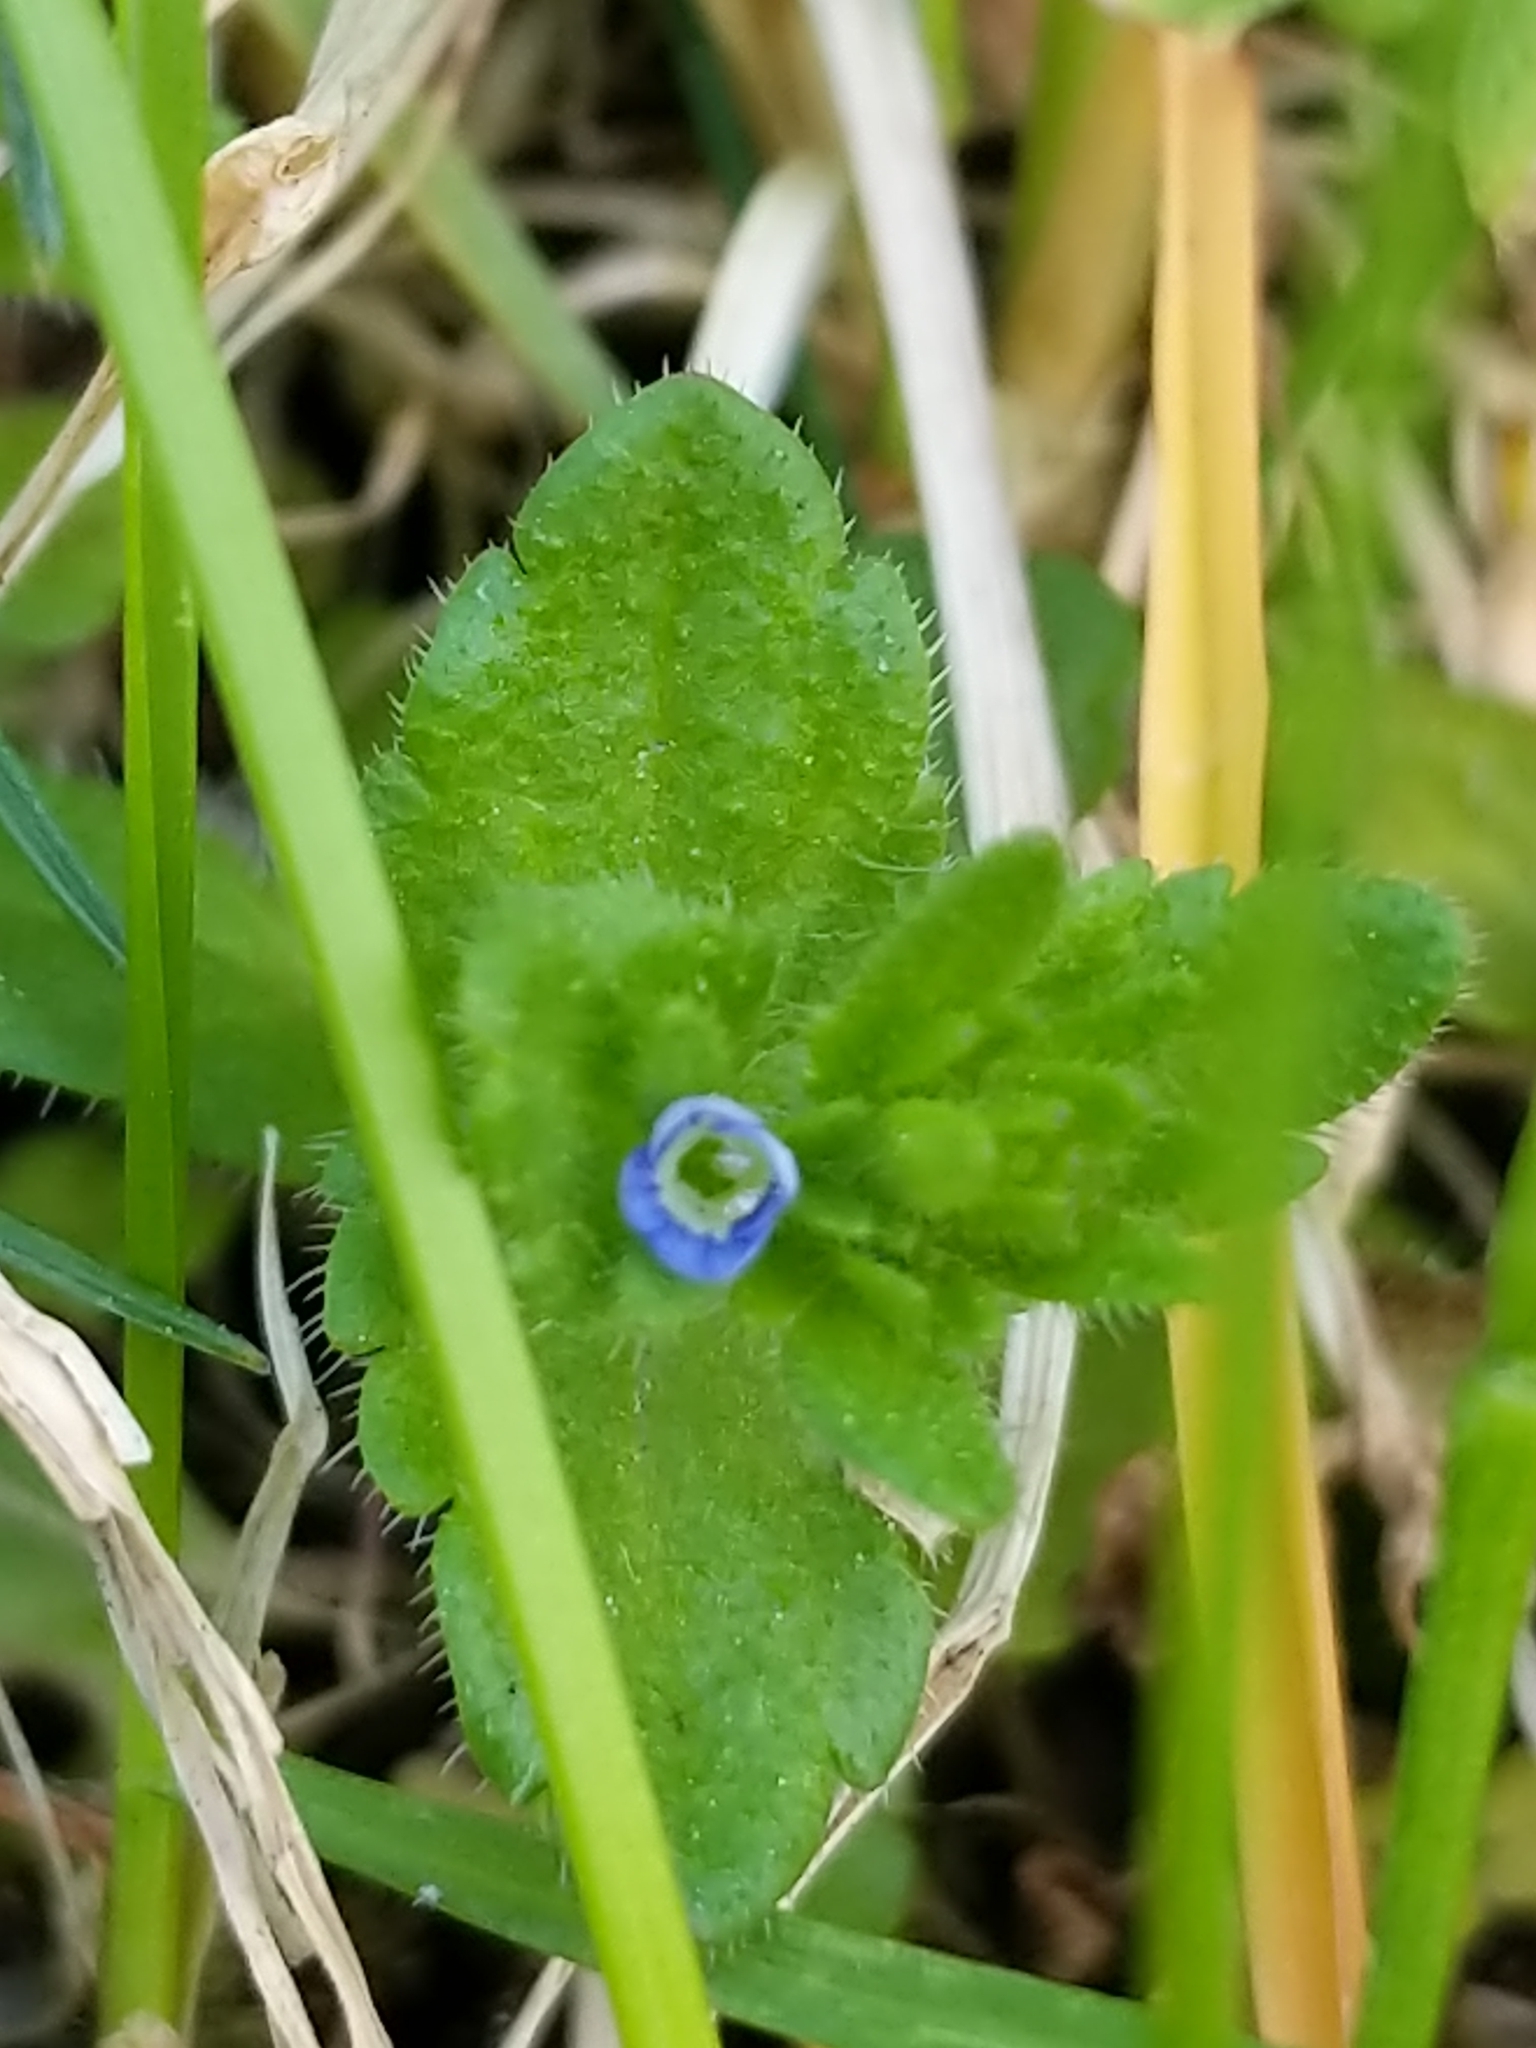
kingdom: Plantae
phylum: Tracheophyta
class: Magnoliopsida
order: Lamiales
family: Plantaginaceae
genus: Veronica
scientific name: Veronica arvensis
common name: Corn speedwell
